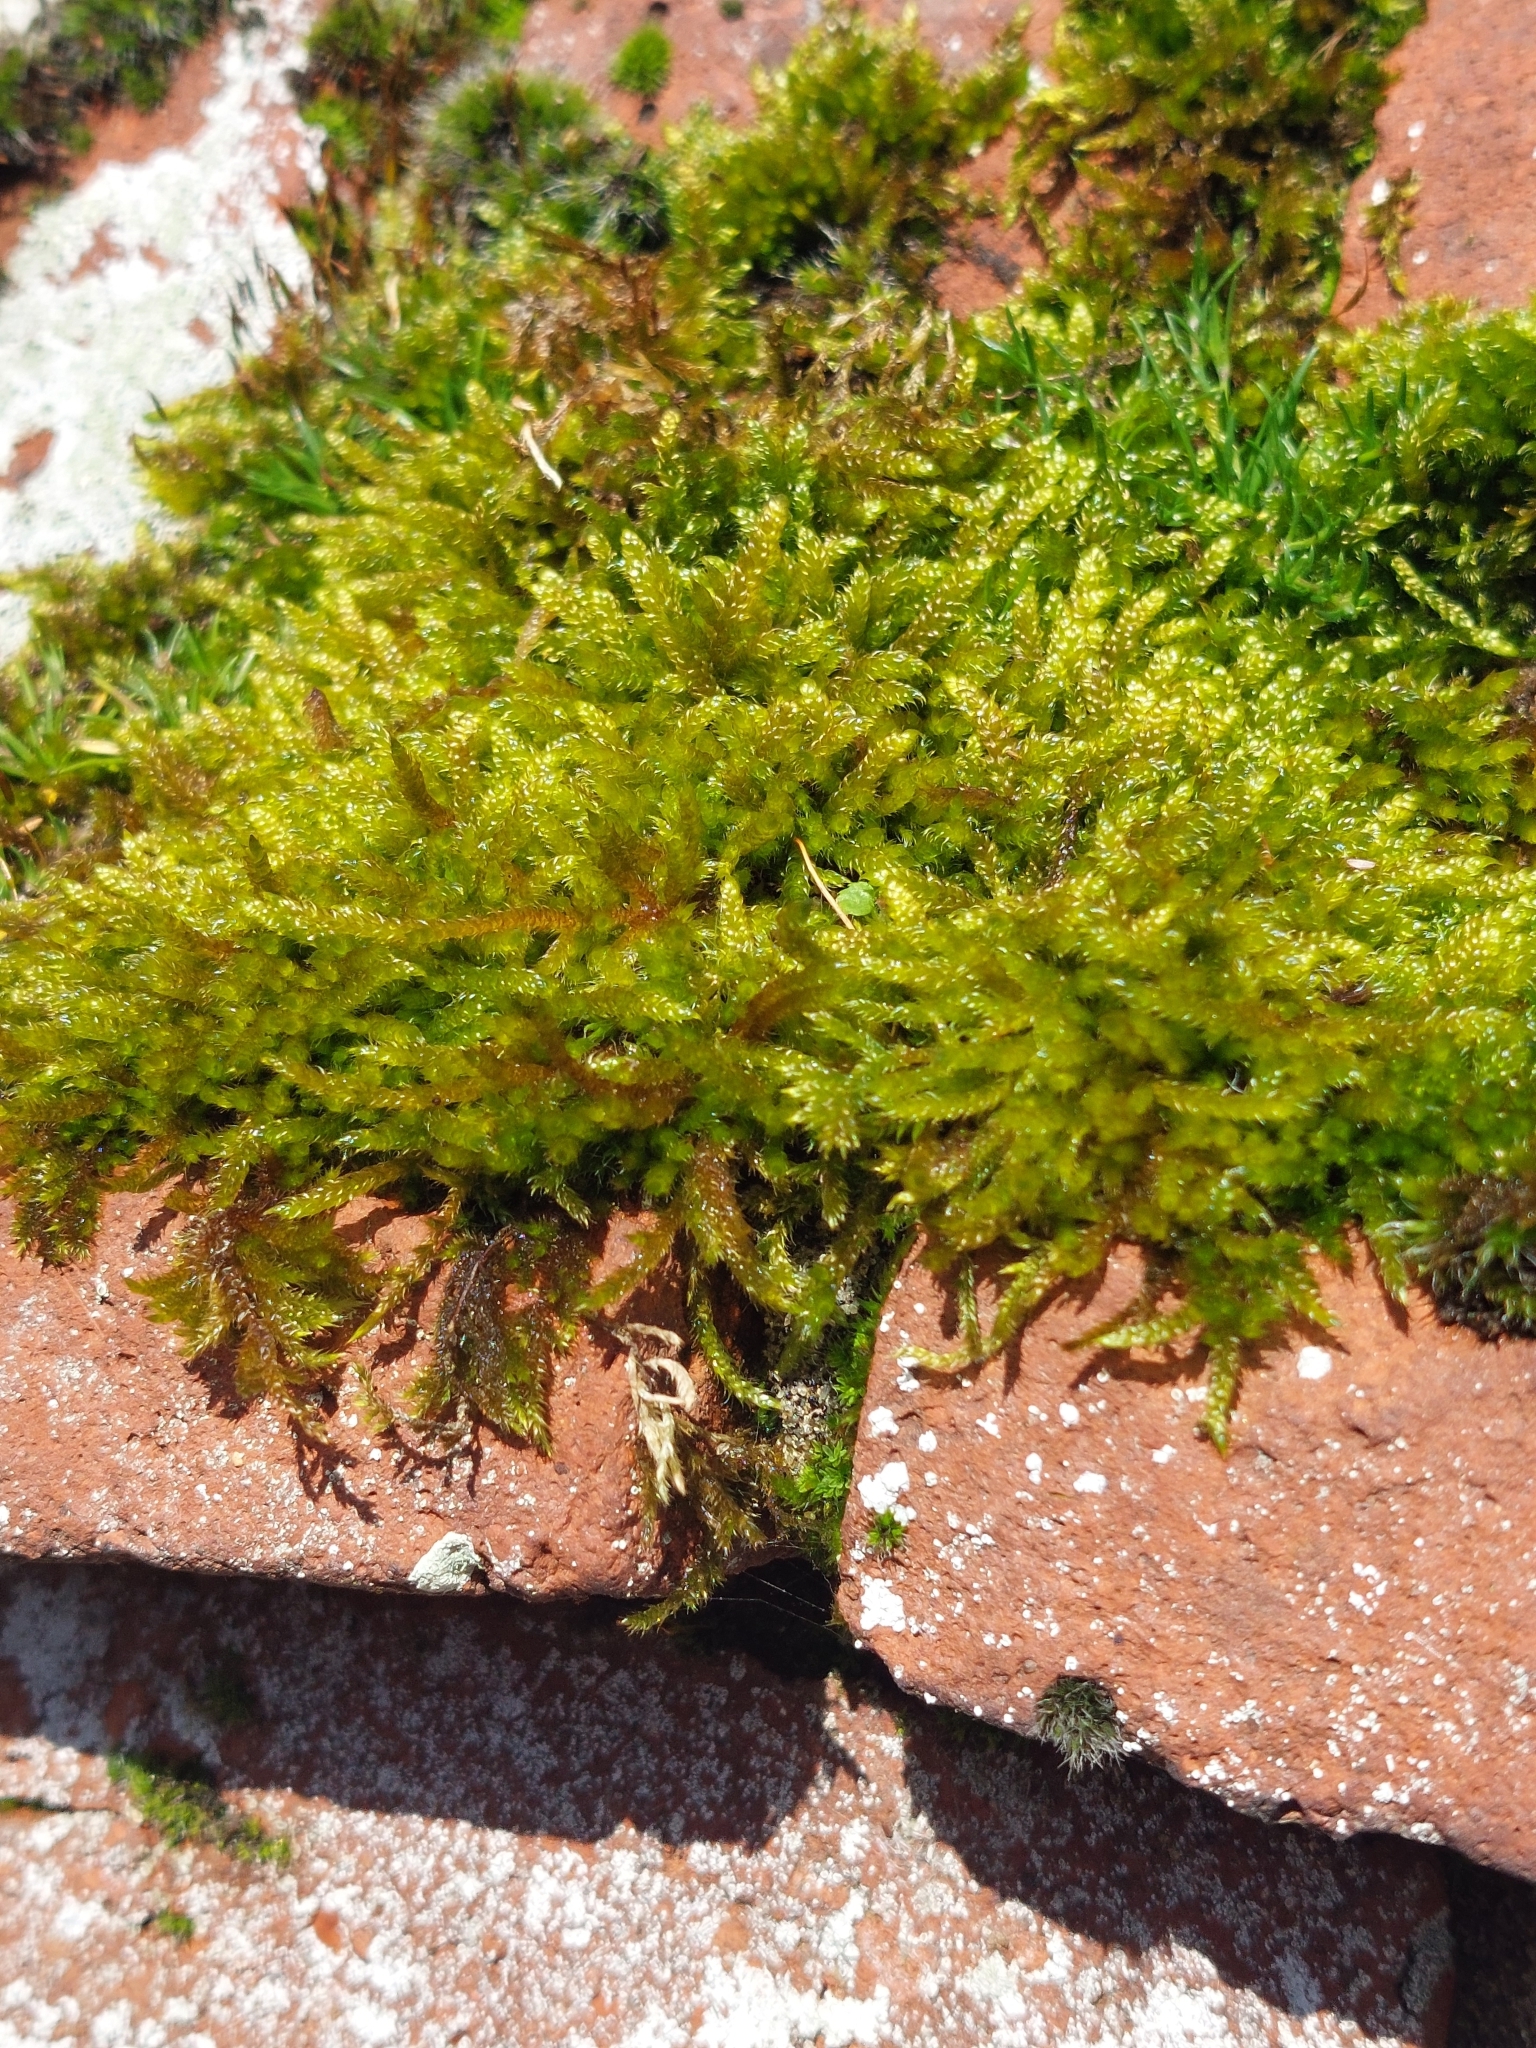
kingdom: Plantae
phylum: Bryophyta
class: Bryopsida
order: Hypnales
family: Hypnaceae
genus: Hypnum
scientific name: Hypnum cupressiforme
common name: Cypress-leaved plait-moss
